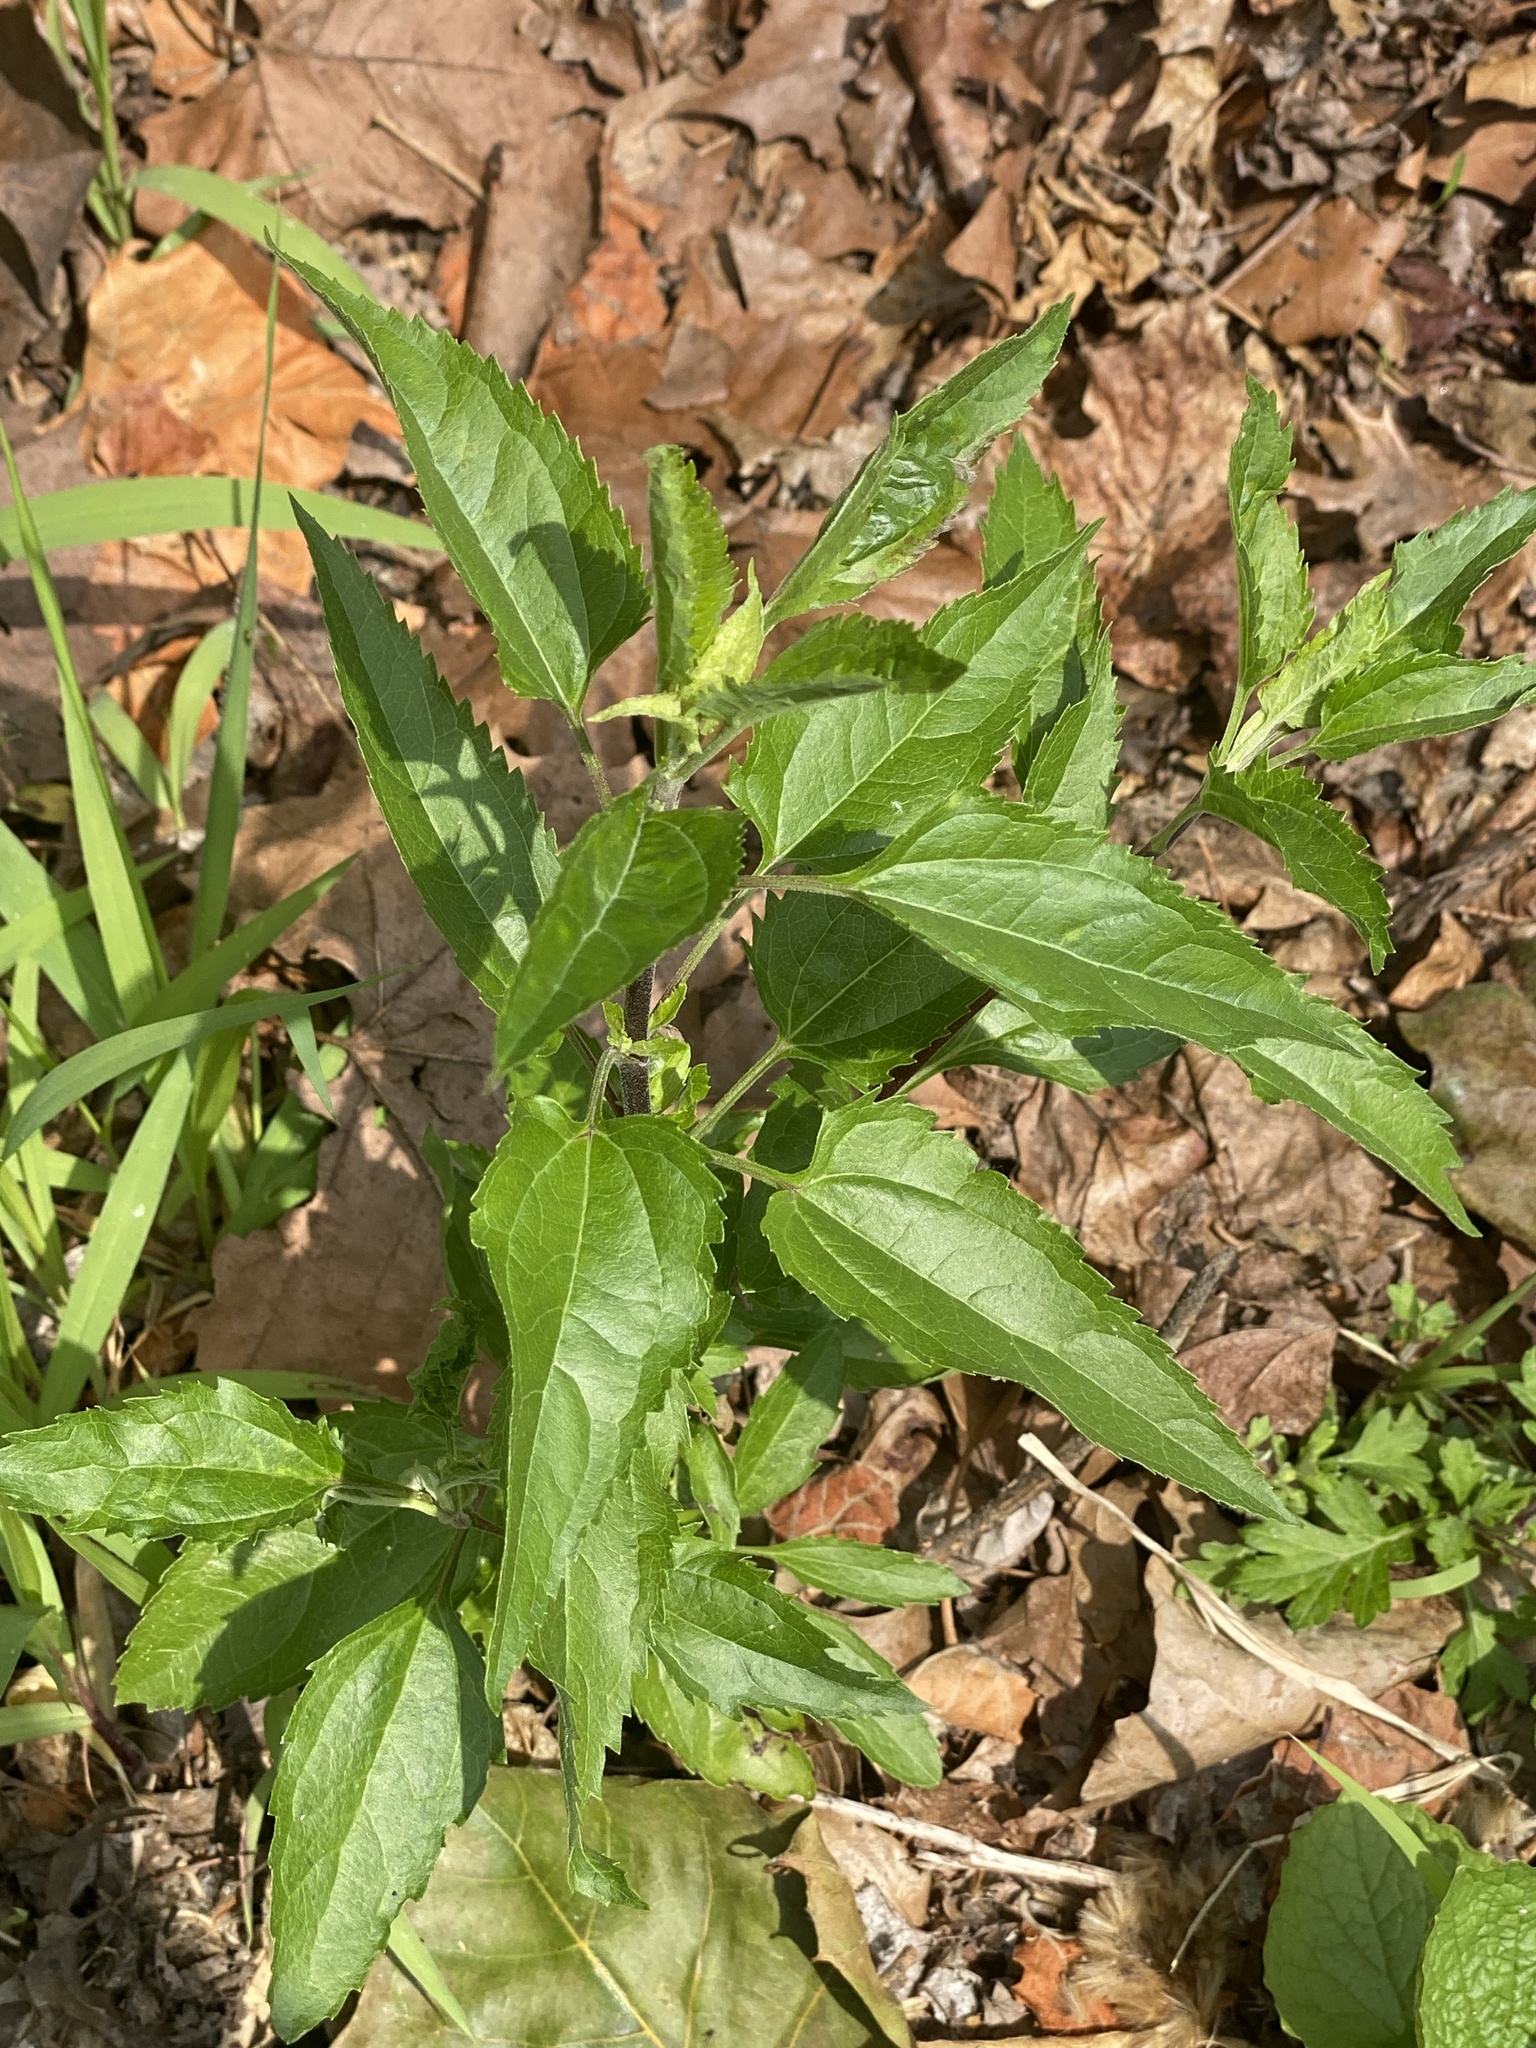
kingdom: Plantae
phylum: Tracheophyta
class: Magnoliopsida
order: Asterales
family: Asteraceae
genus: Eupatorium
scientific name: Eupatorium serotinum
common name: Late boneset
